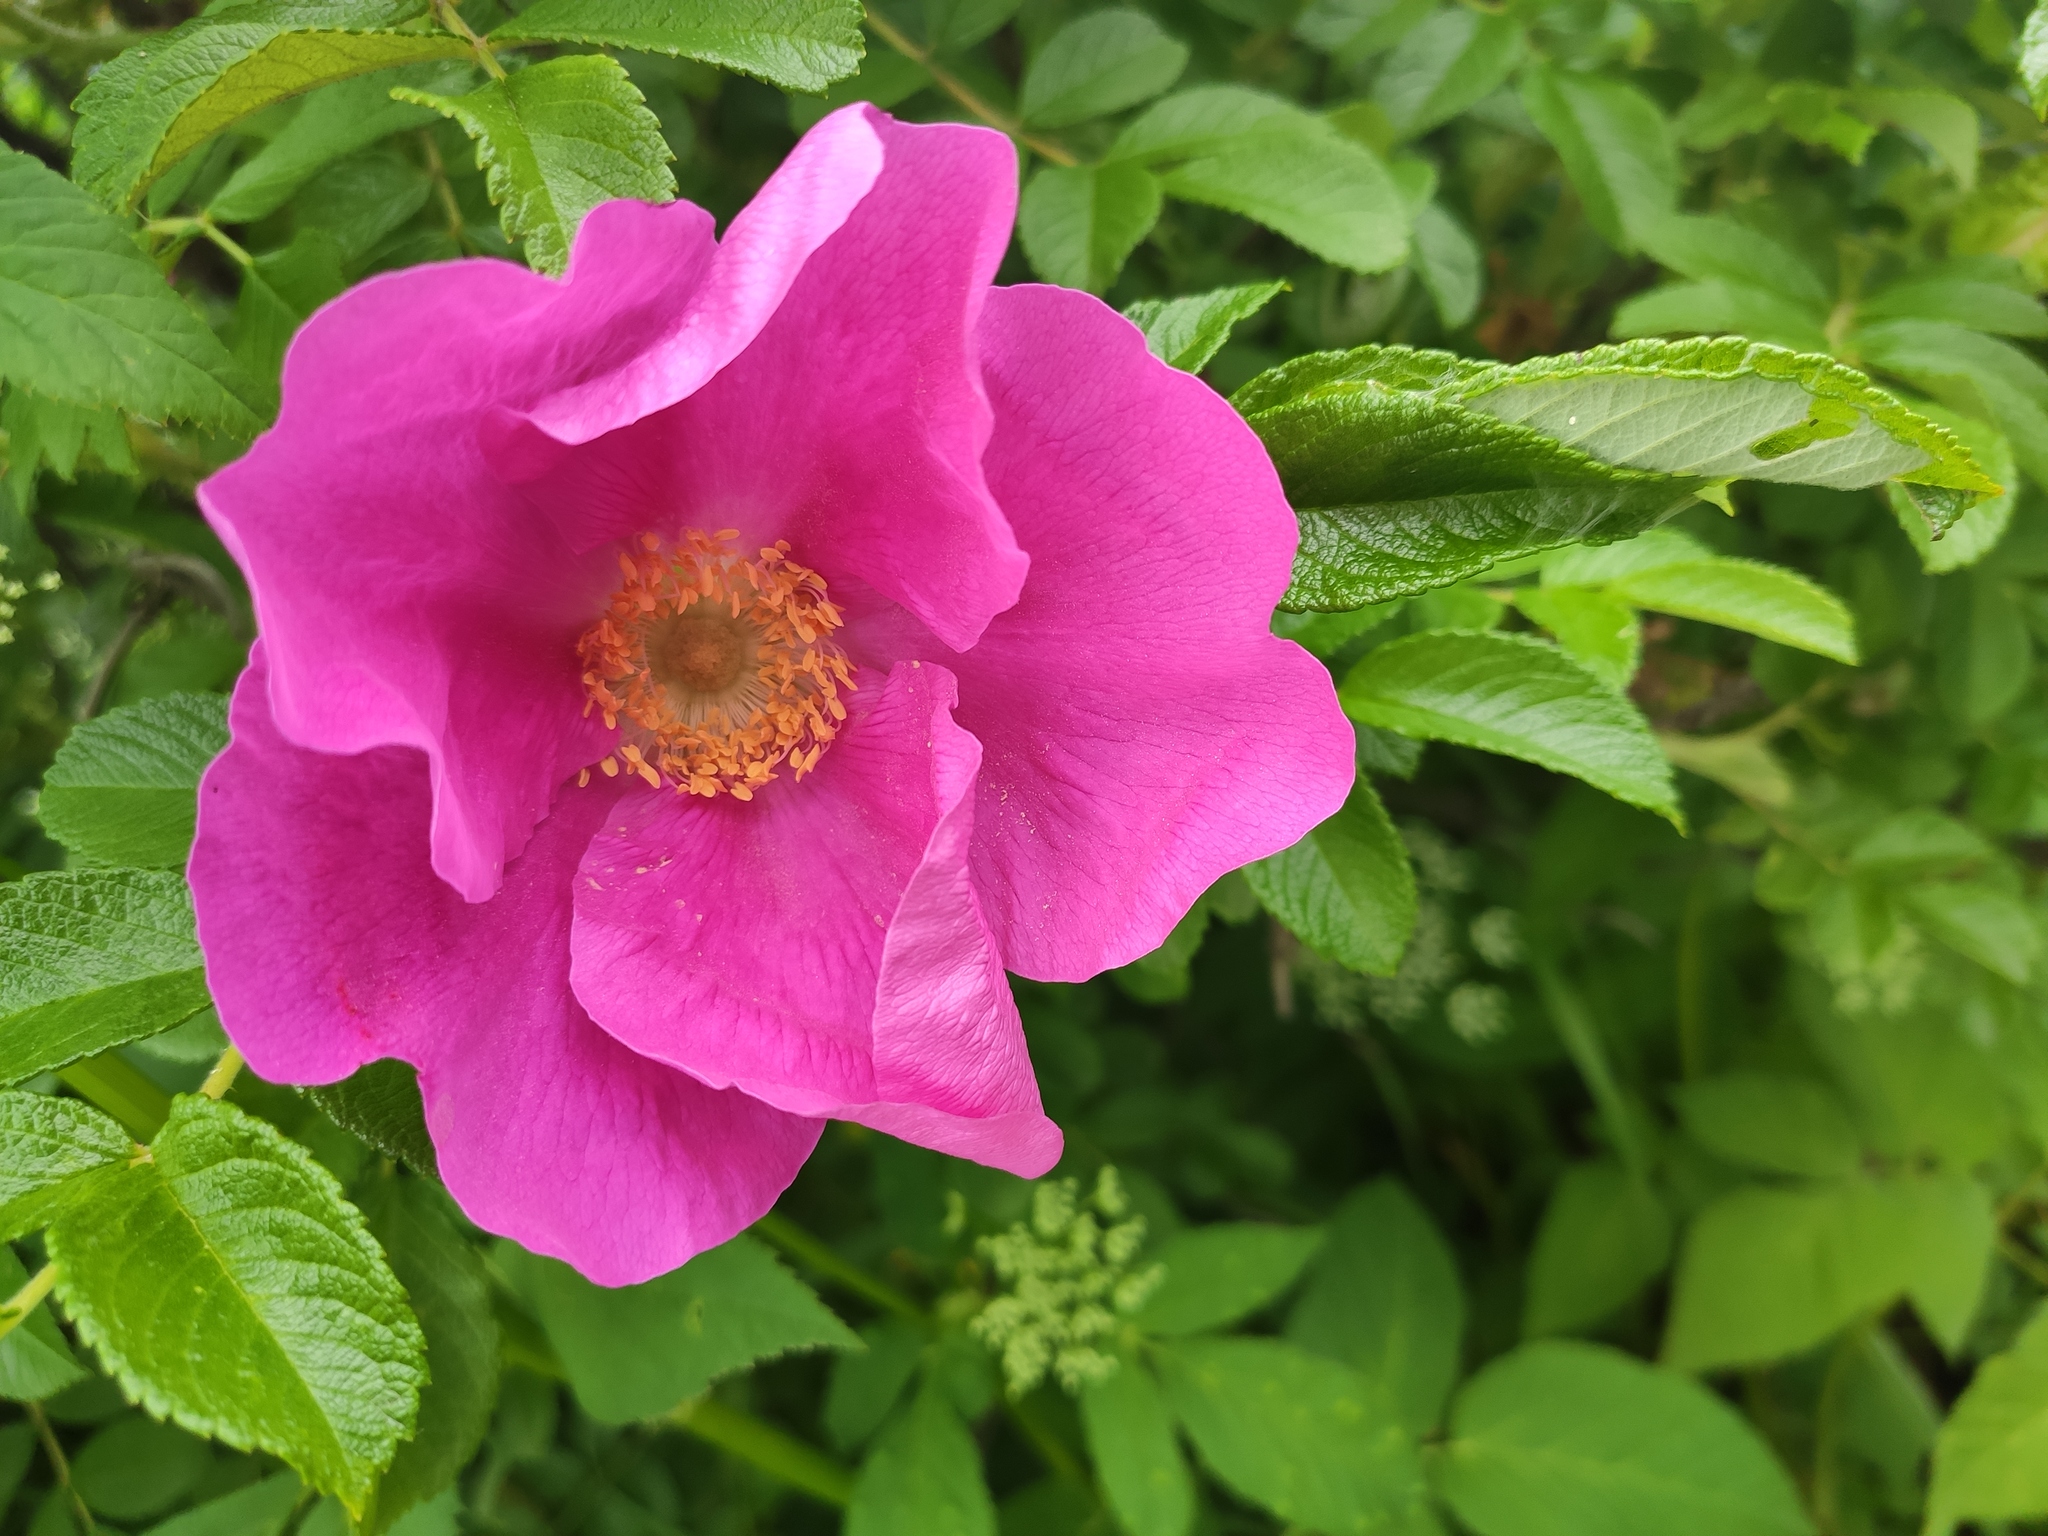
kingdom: Plantae
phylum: Tracheophyta
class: Magnoliopsida
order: Rosales
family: Rosaceae
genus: Rosa
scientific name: Rosa rugosa
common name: Japanese rose
